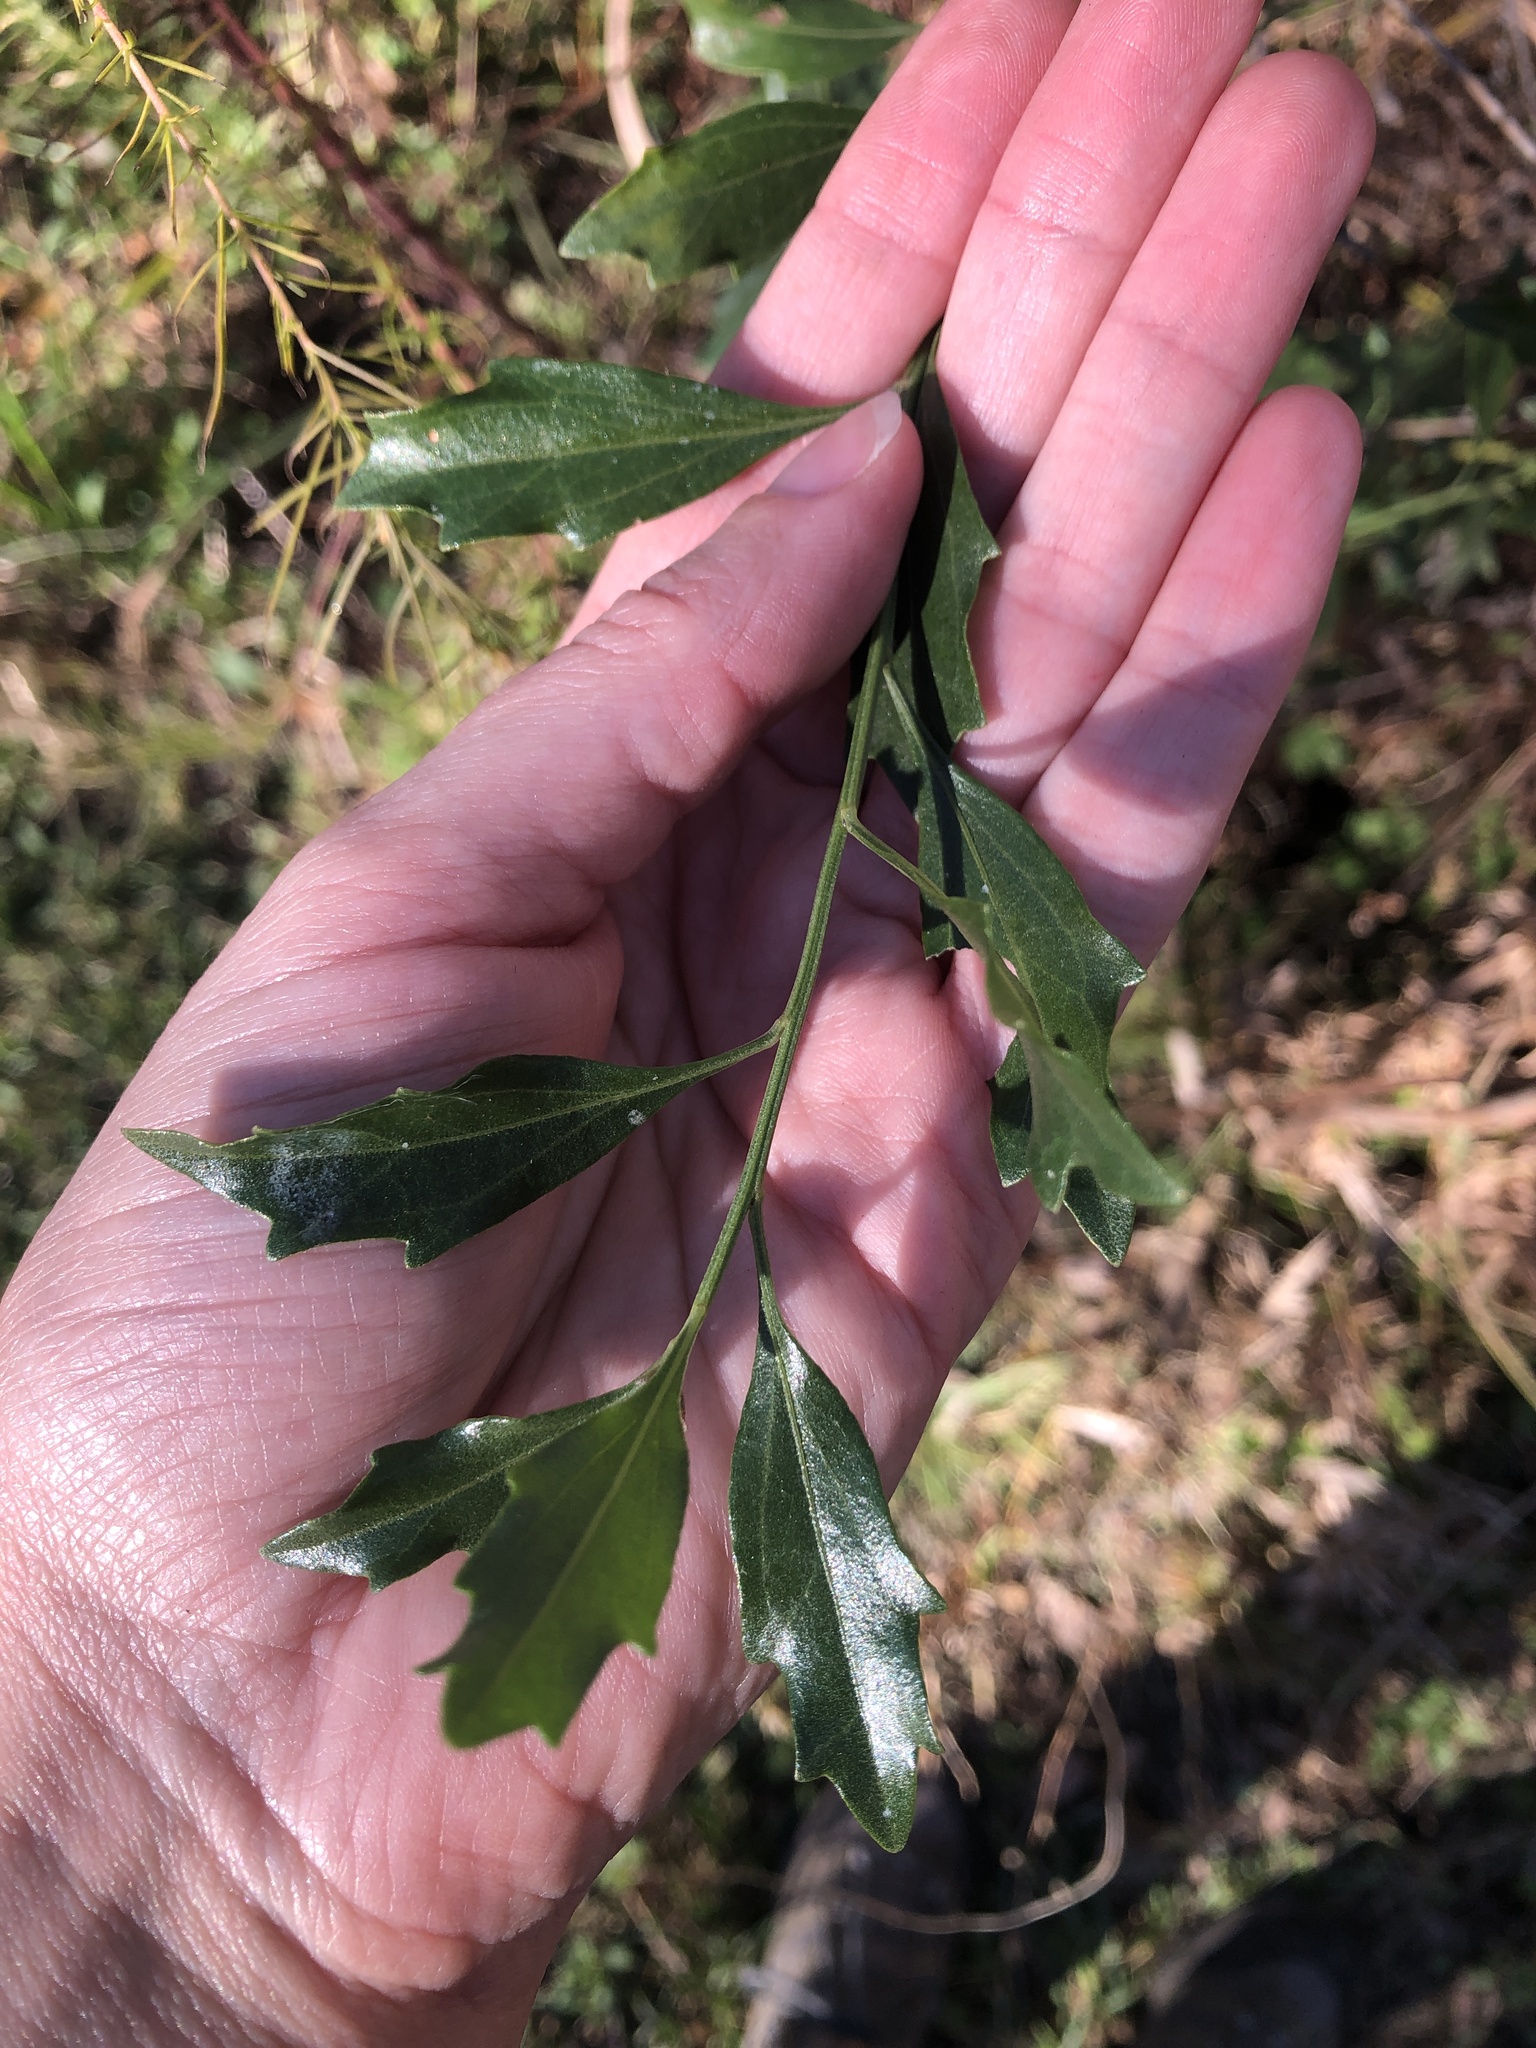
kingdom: Plantae
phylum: Tracheophyta
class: Magnoliopsida
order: Asterales
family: Asteraceae
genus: Baccharis
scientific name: Baccharis halimifolia
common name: Eastern baccharis
